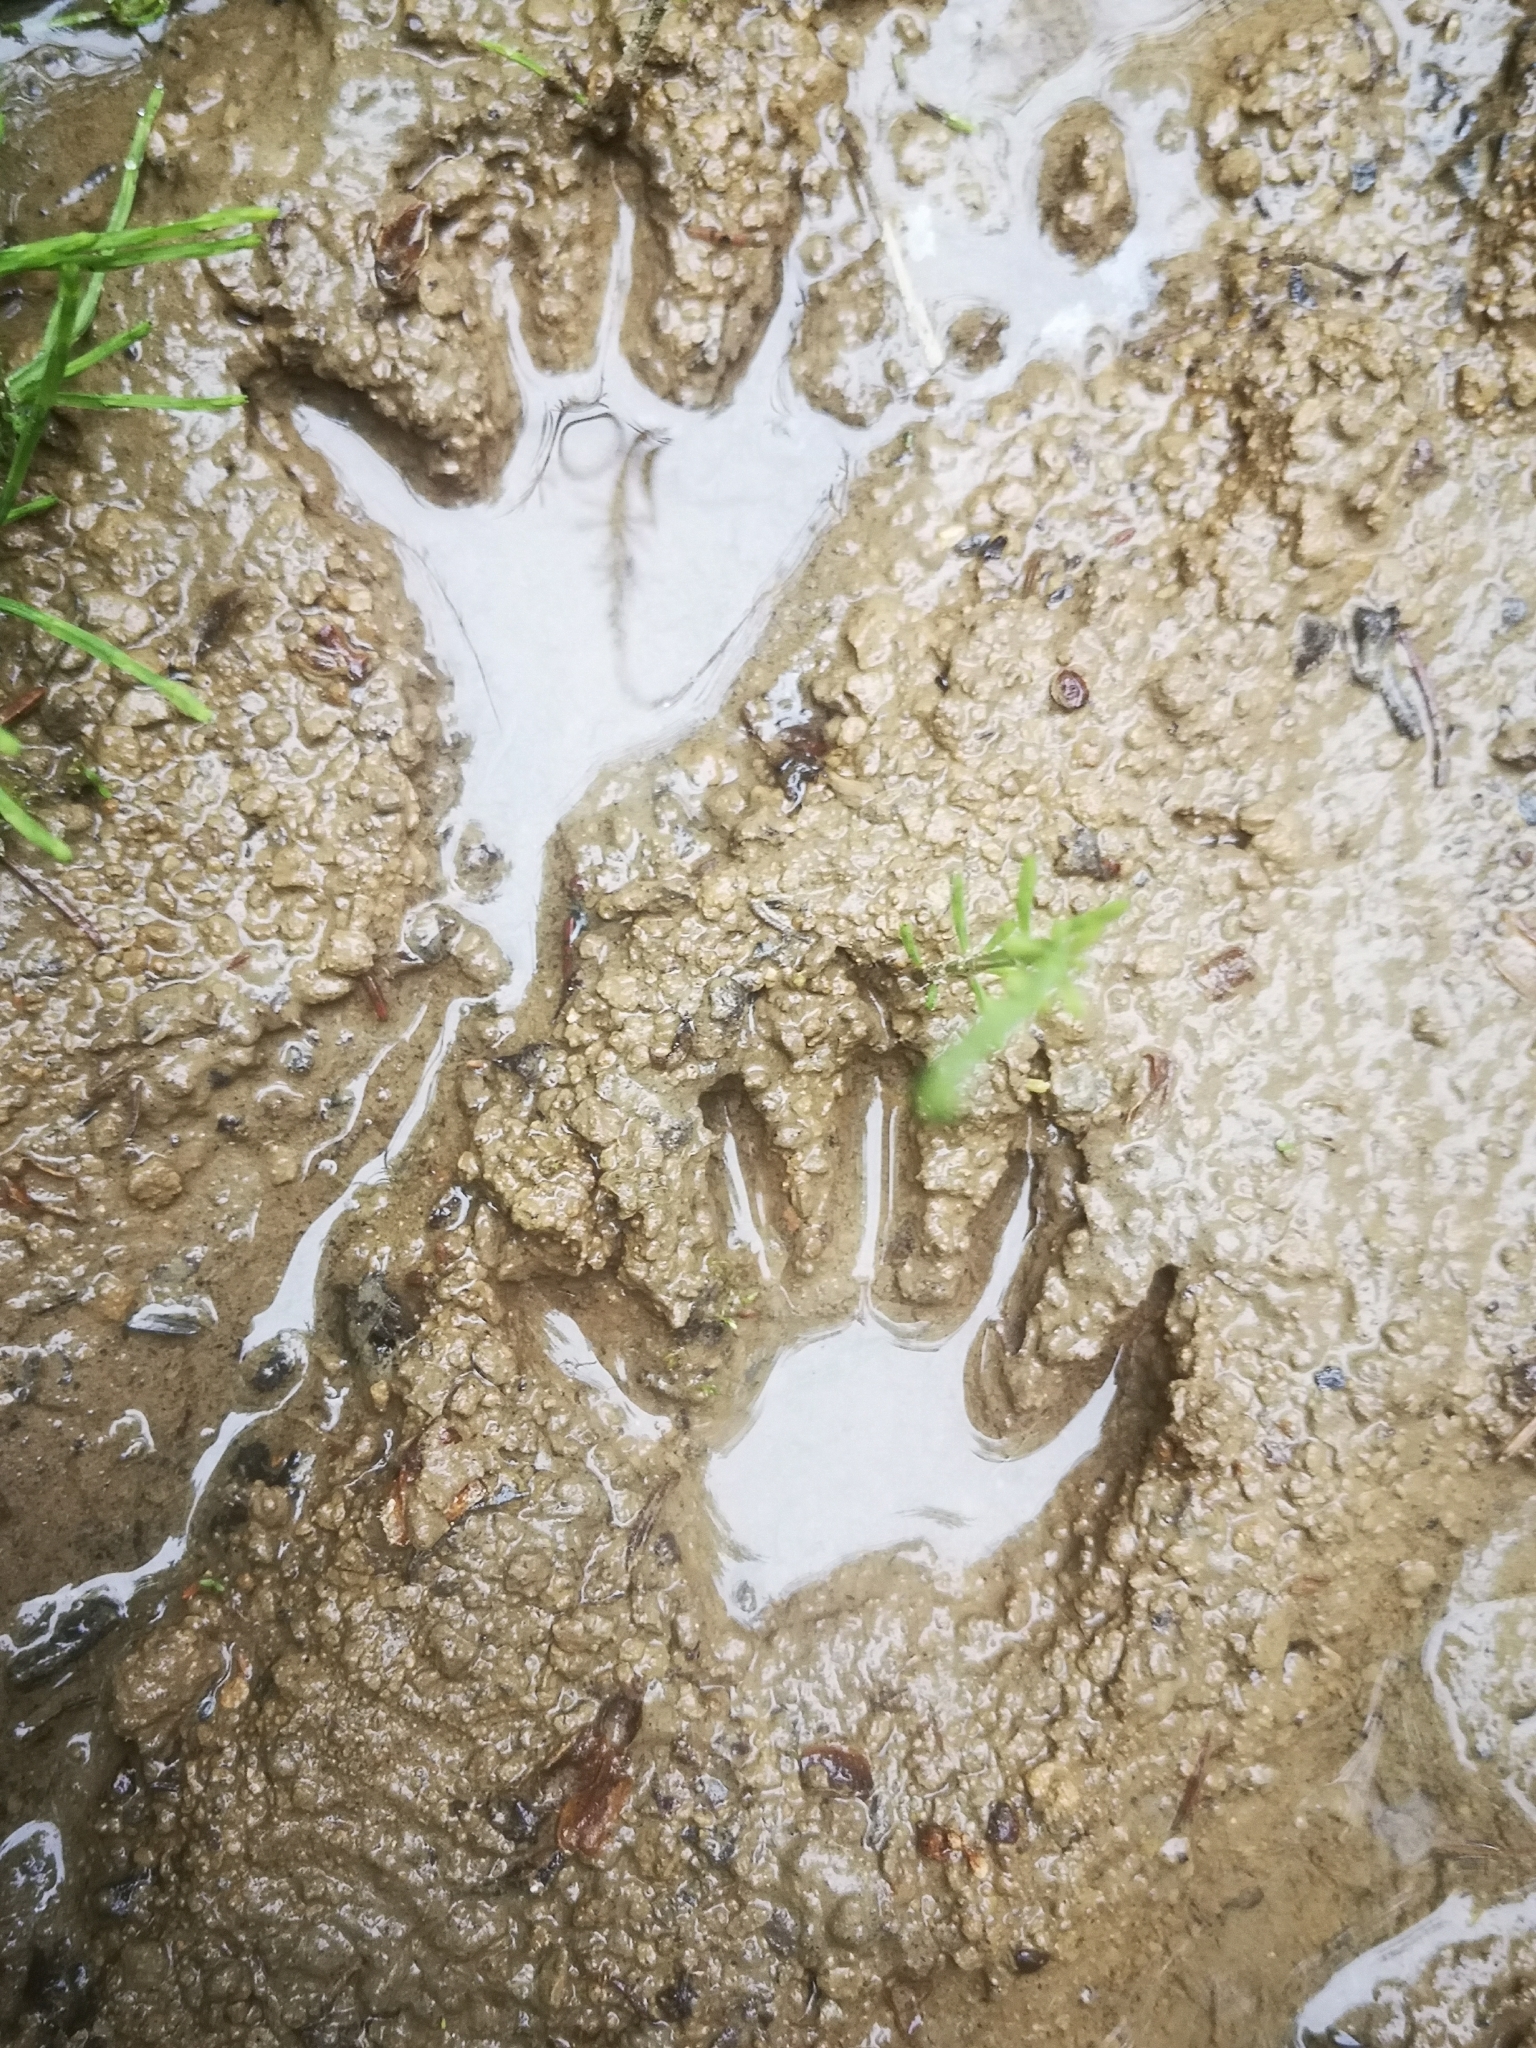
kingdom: Animalia
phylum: Chordata
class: Mammalia
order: Carnivora
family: Procyonidae
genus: Procyon
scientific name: Procyon lotor
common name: Raccoon
